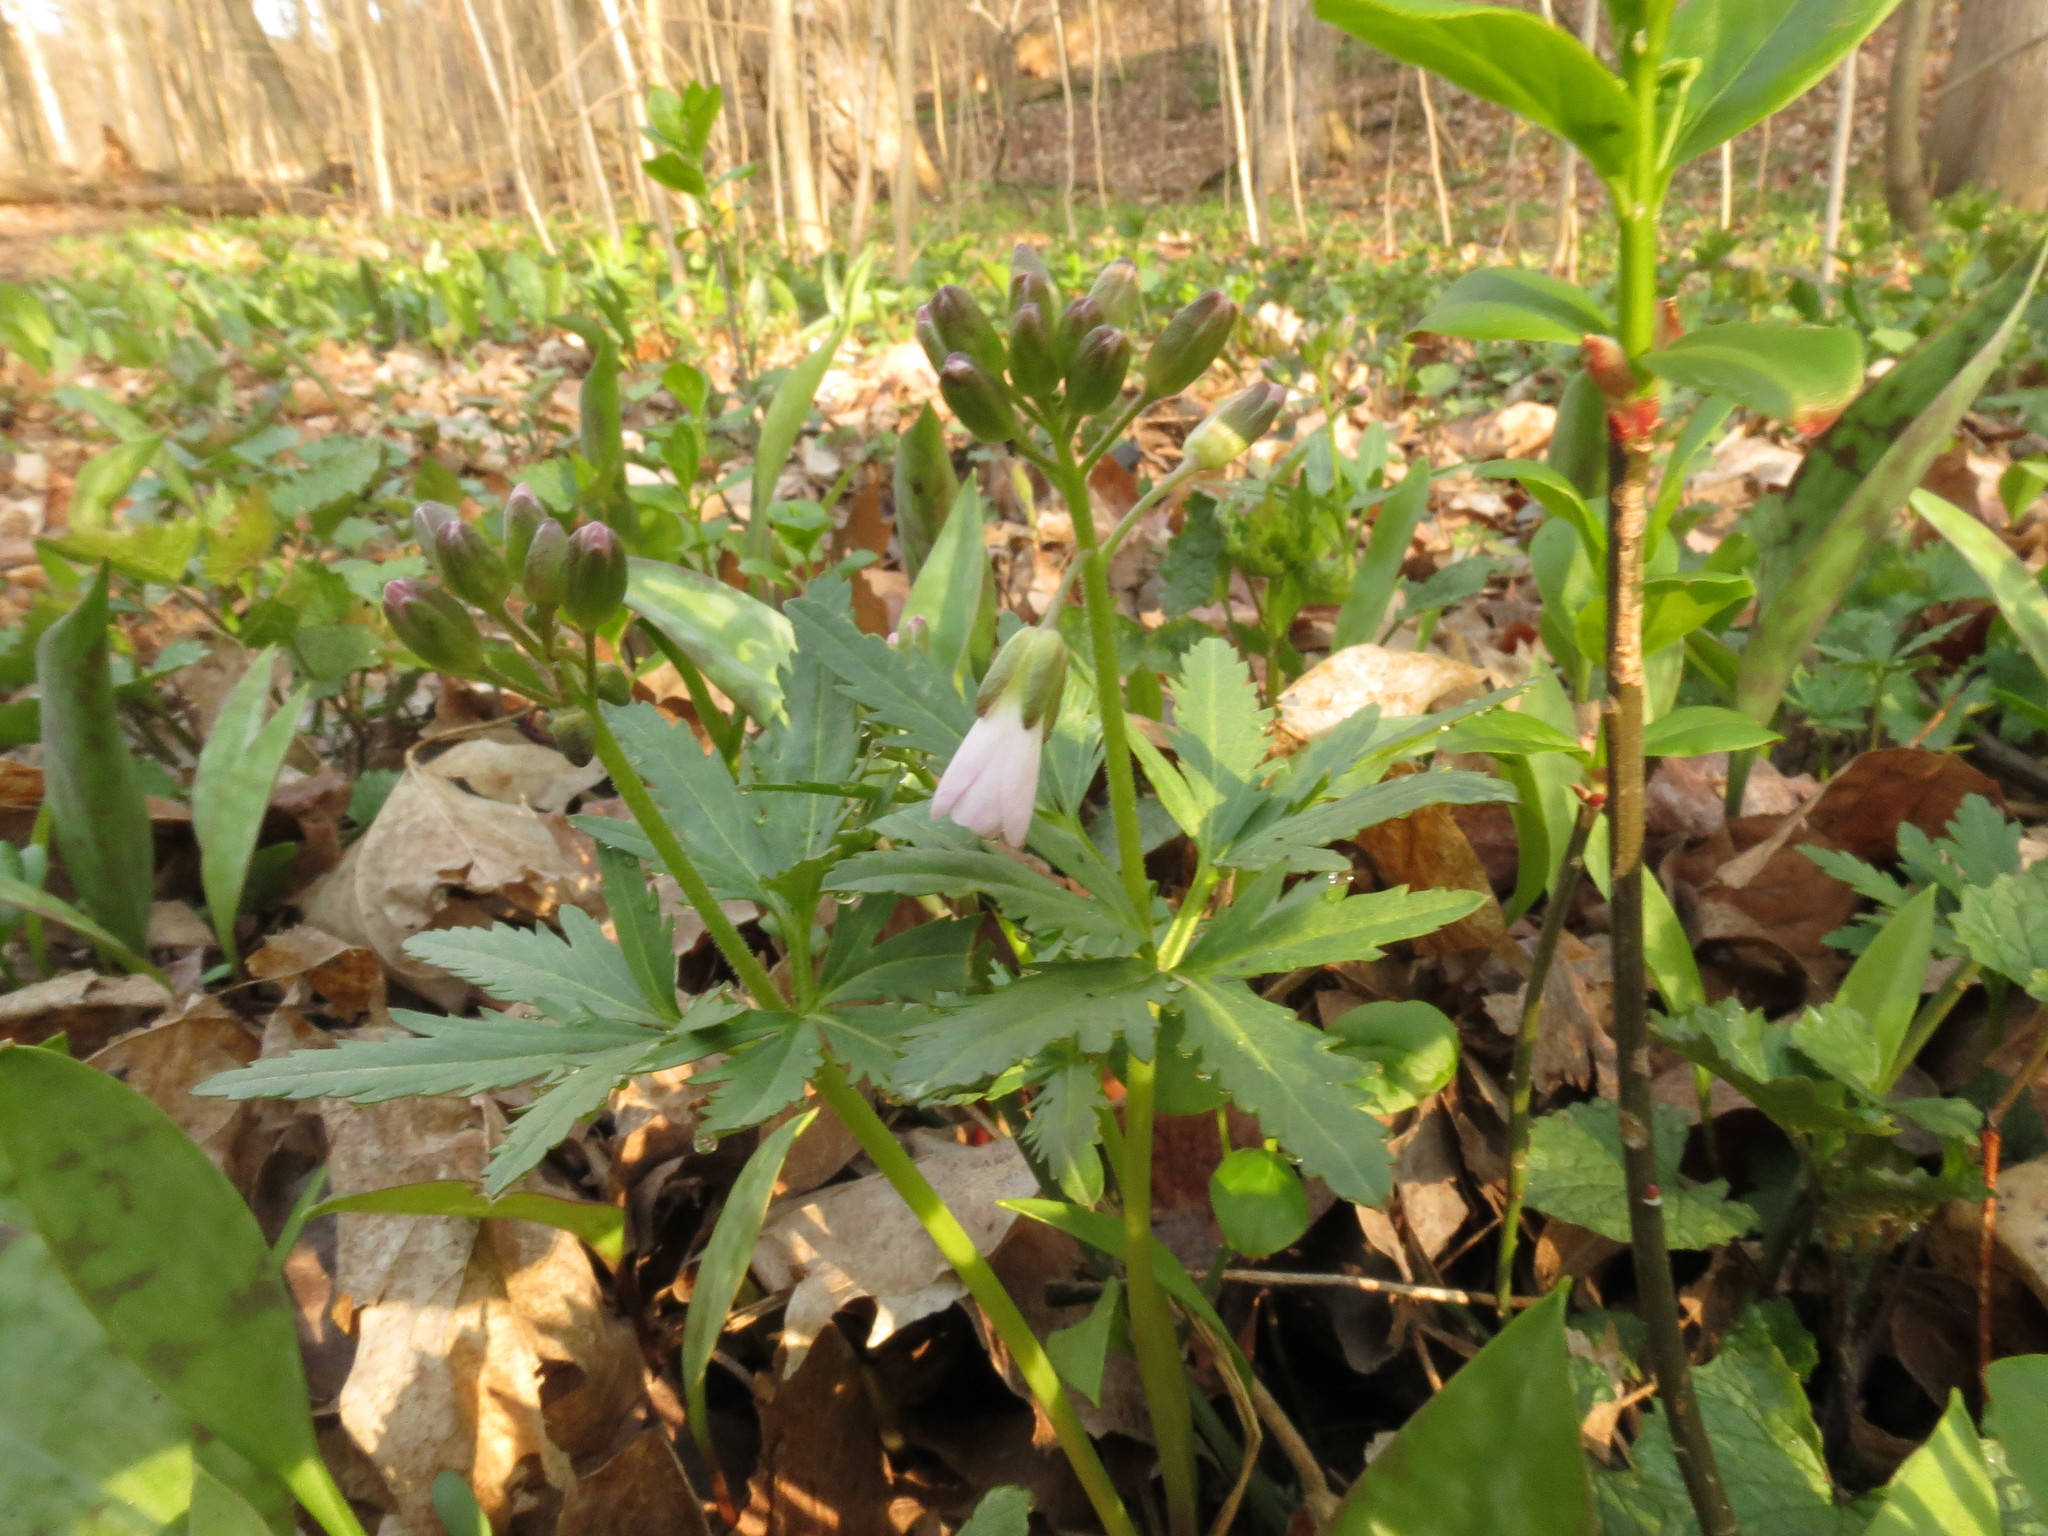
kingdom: Plantae
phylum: Tracheophyta
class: Magnoliopsida
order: Brassicales
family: Brassicaceae
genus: Cardamine
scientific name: Cardamine concatenata
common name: Cut-leaf toothcup
